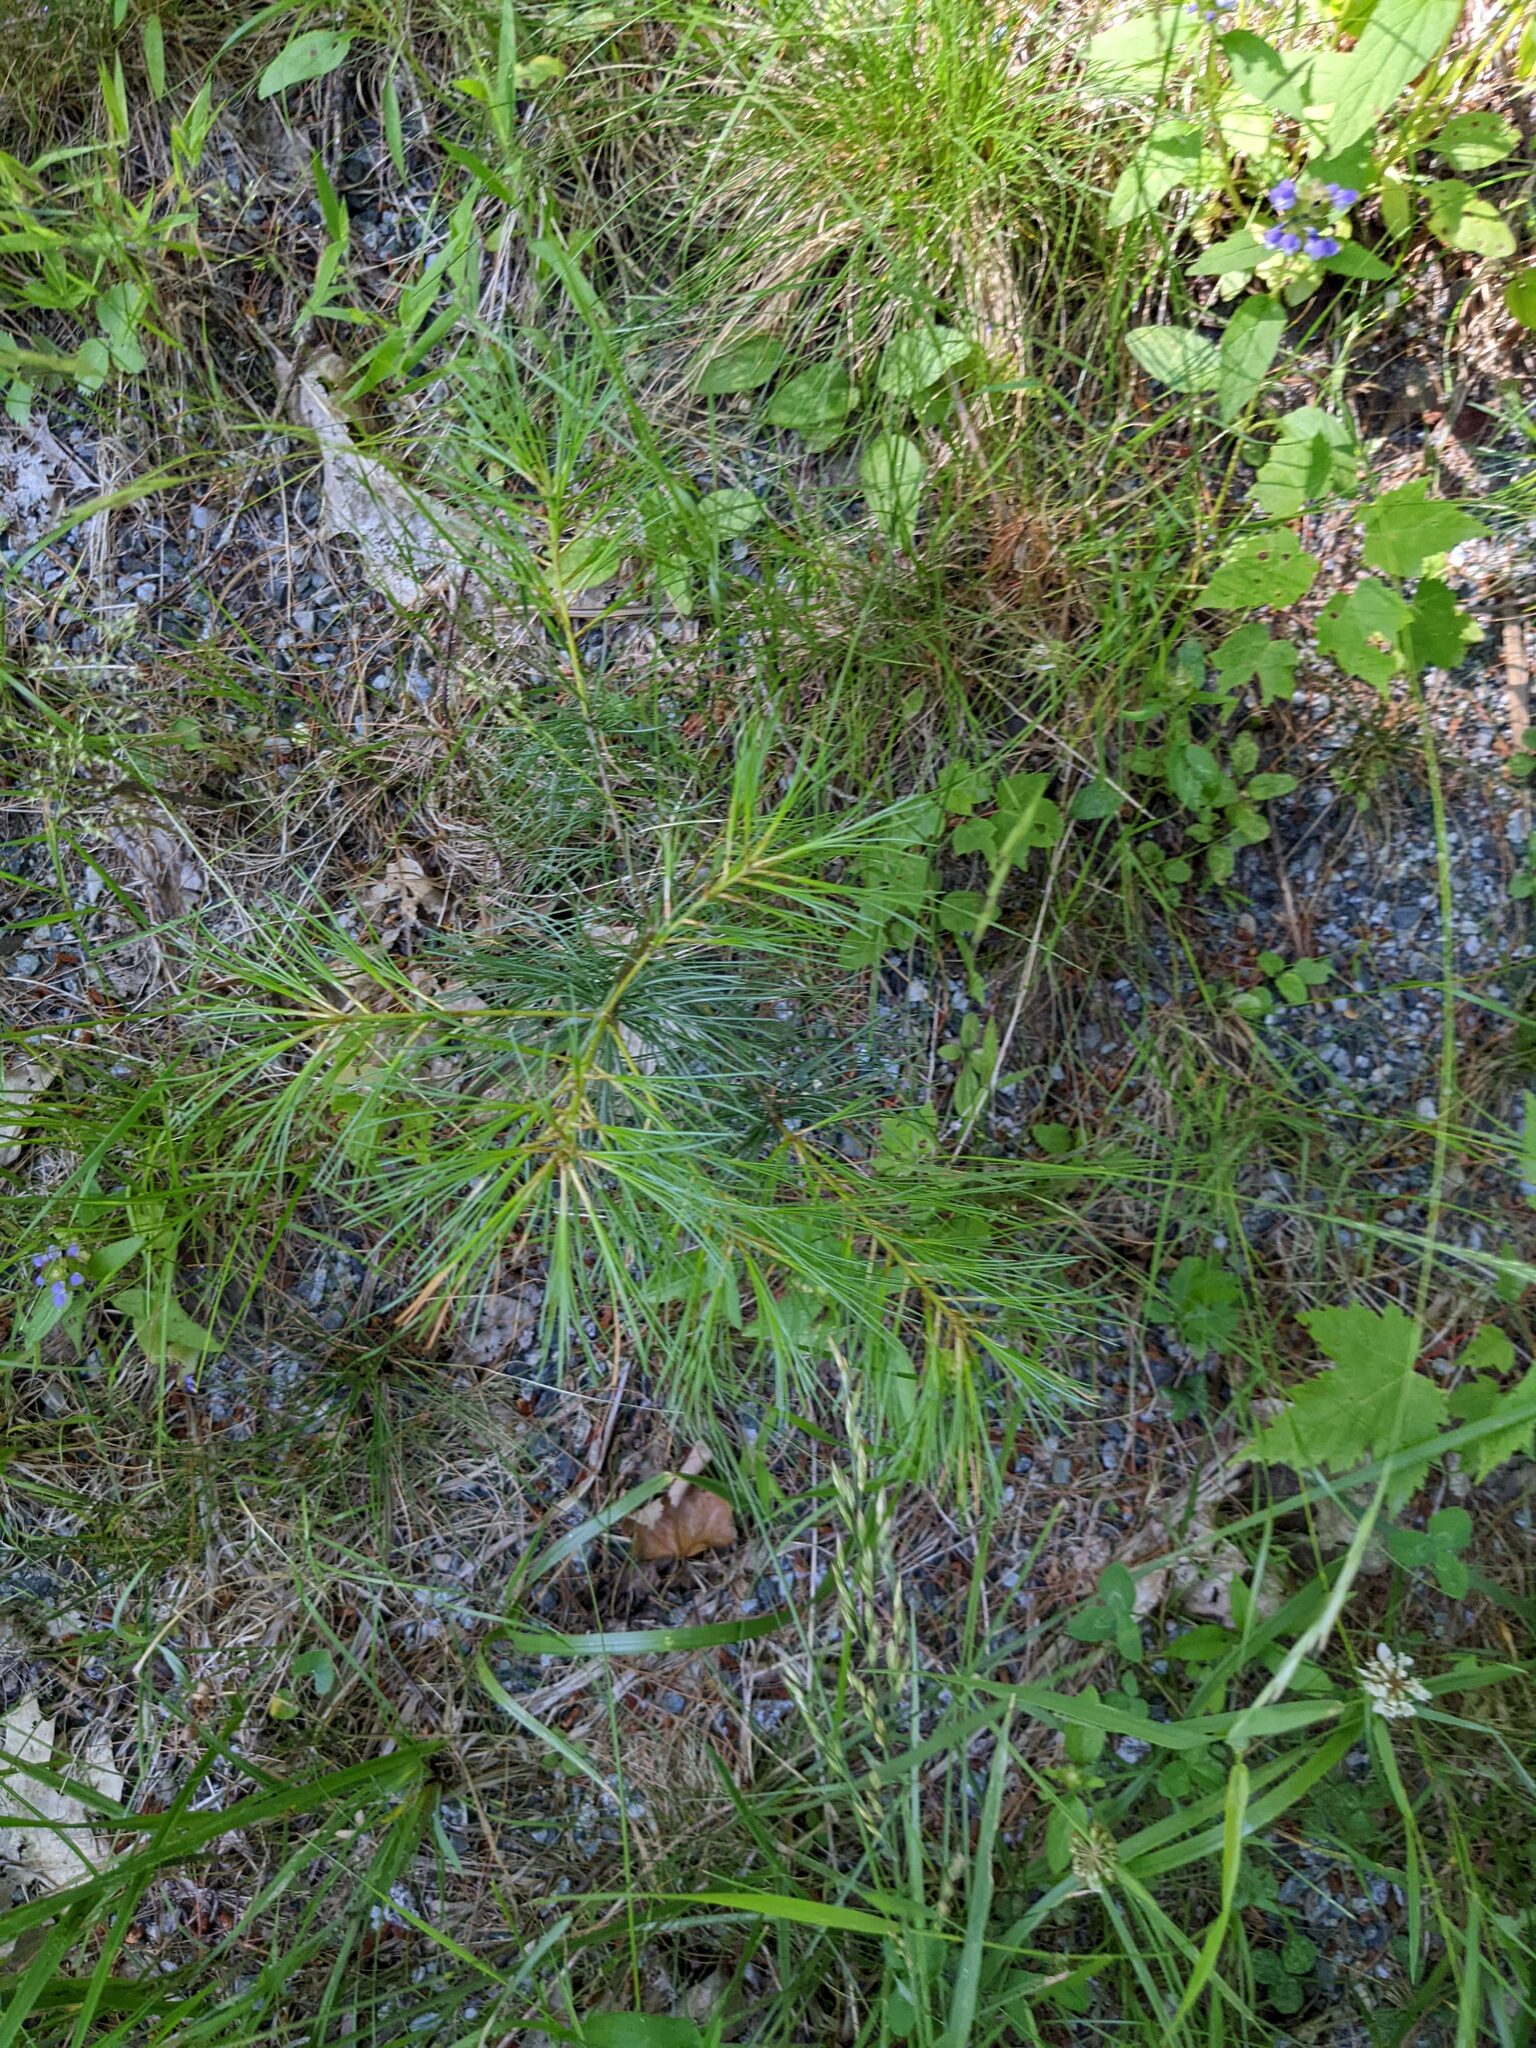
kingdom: Plantae
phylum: Tracheophyta
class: Pinopsida
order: Pinales
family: Pinaceae
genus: Pinus
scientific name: Pinus strobus
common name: Weymouth pine
